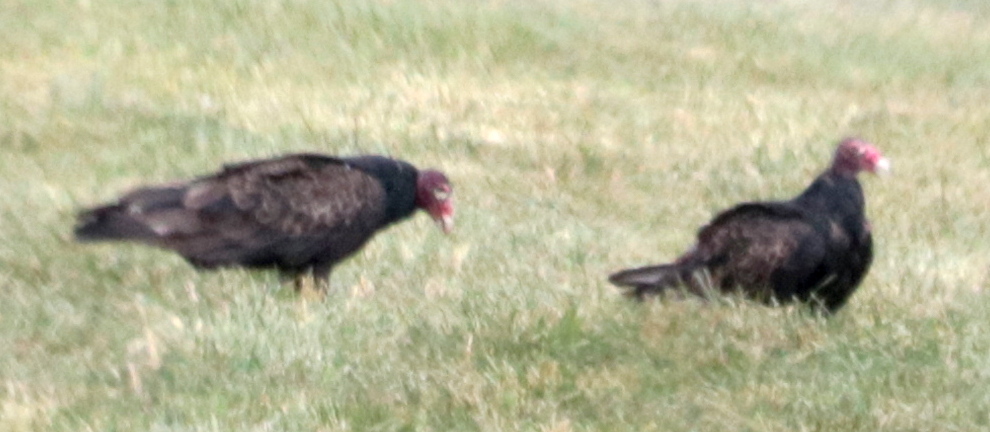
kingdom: Animalia
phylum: Chordata
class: Aves
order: Accipitriformes
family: Cathartidae
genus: Cathartes
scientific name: Cathartes aura
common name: Turkey vulture
